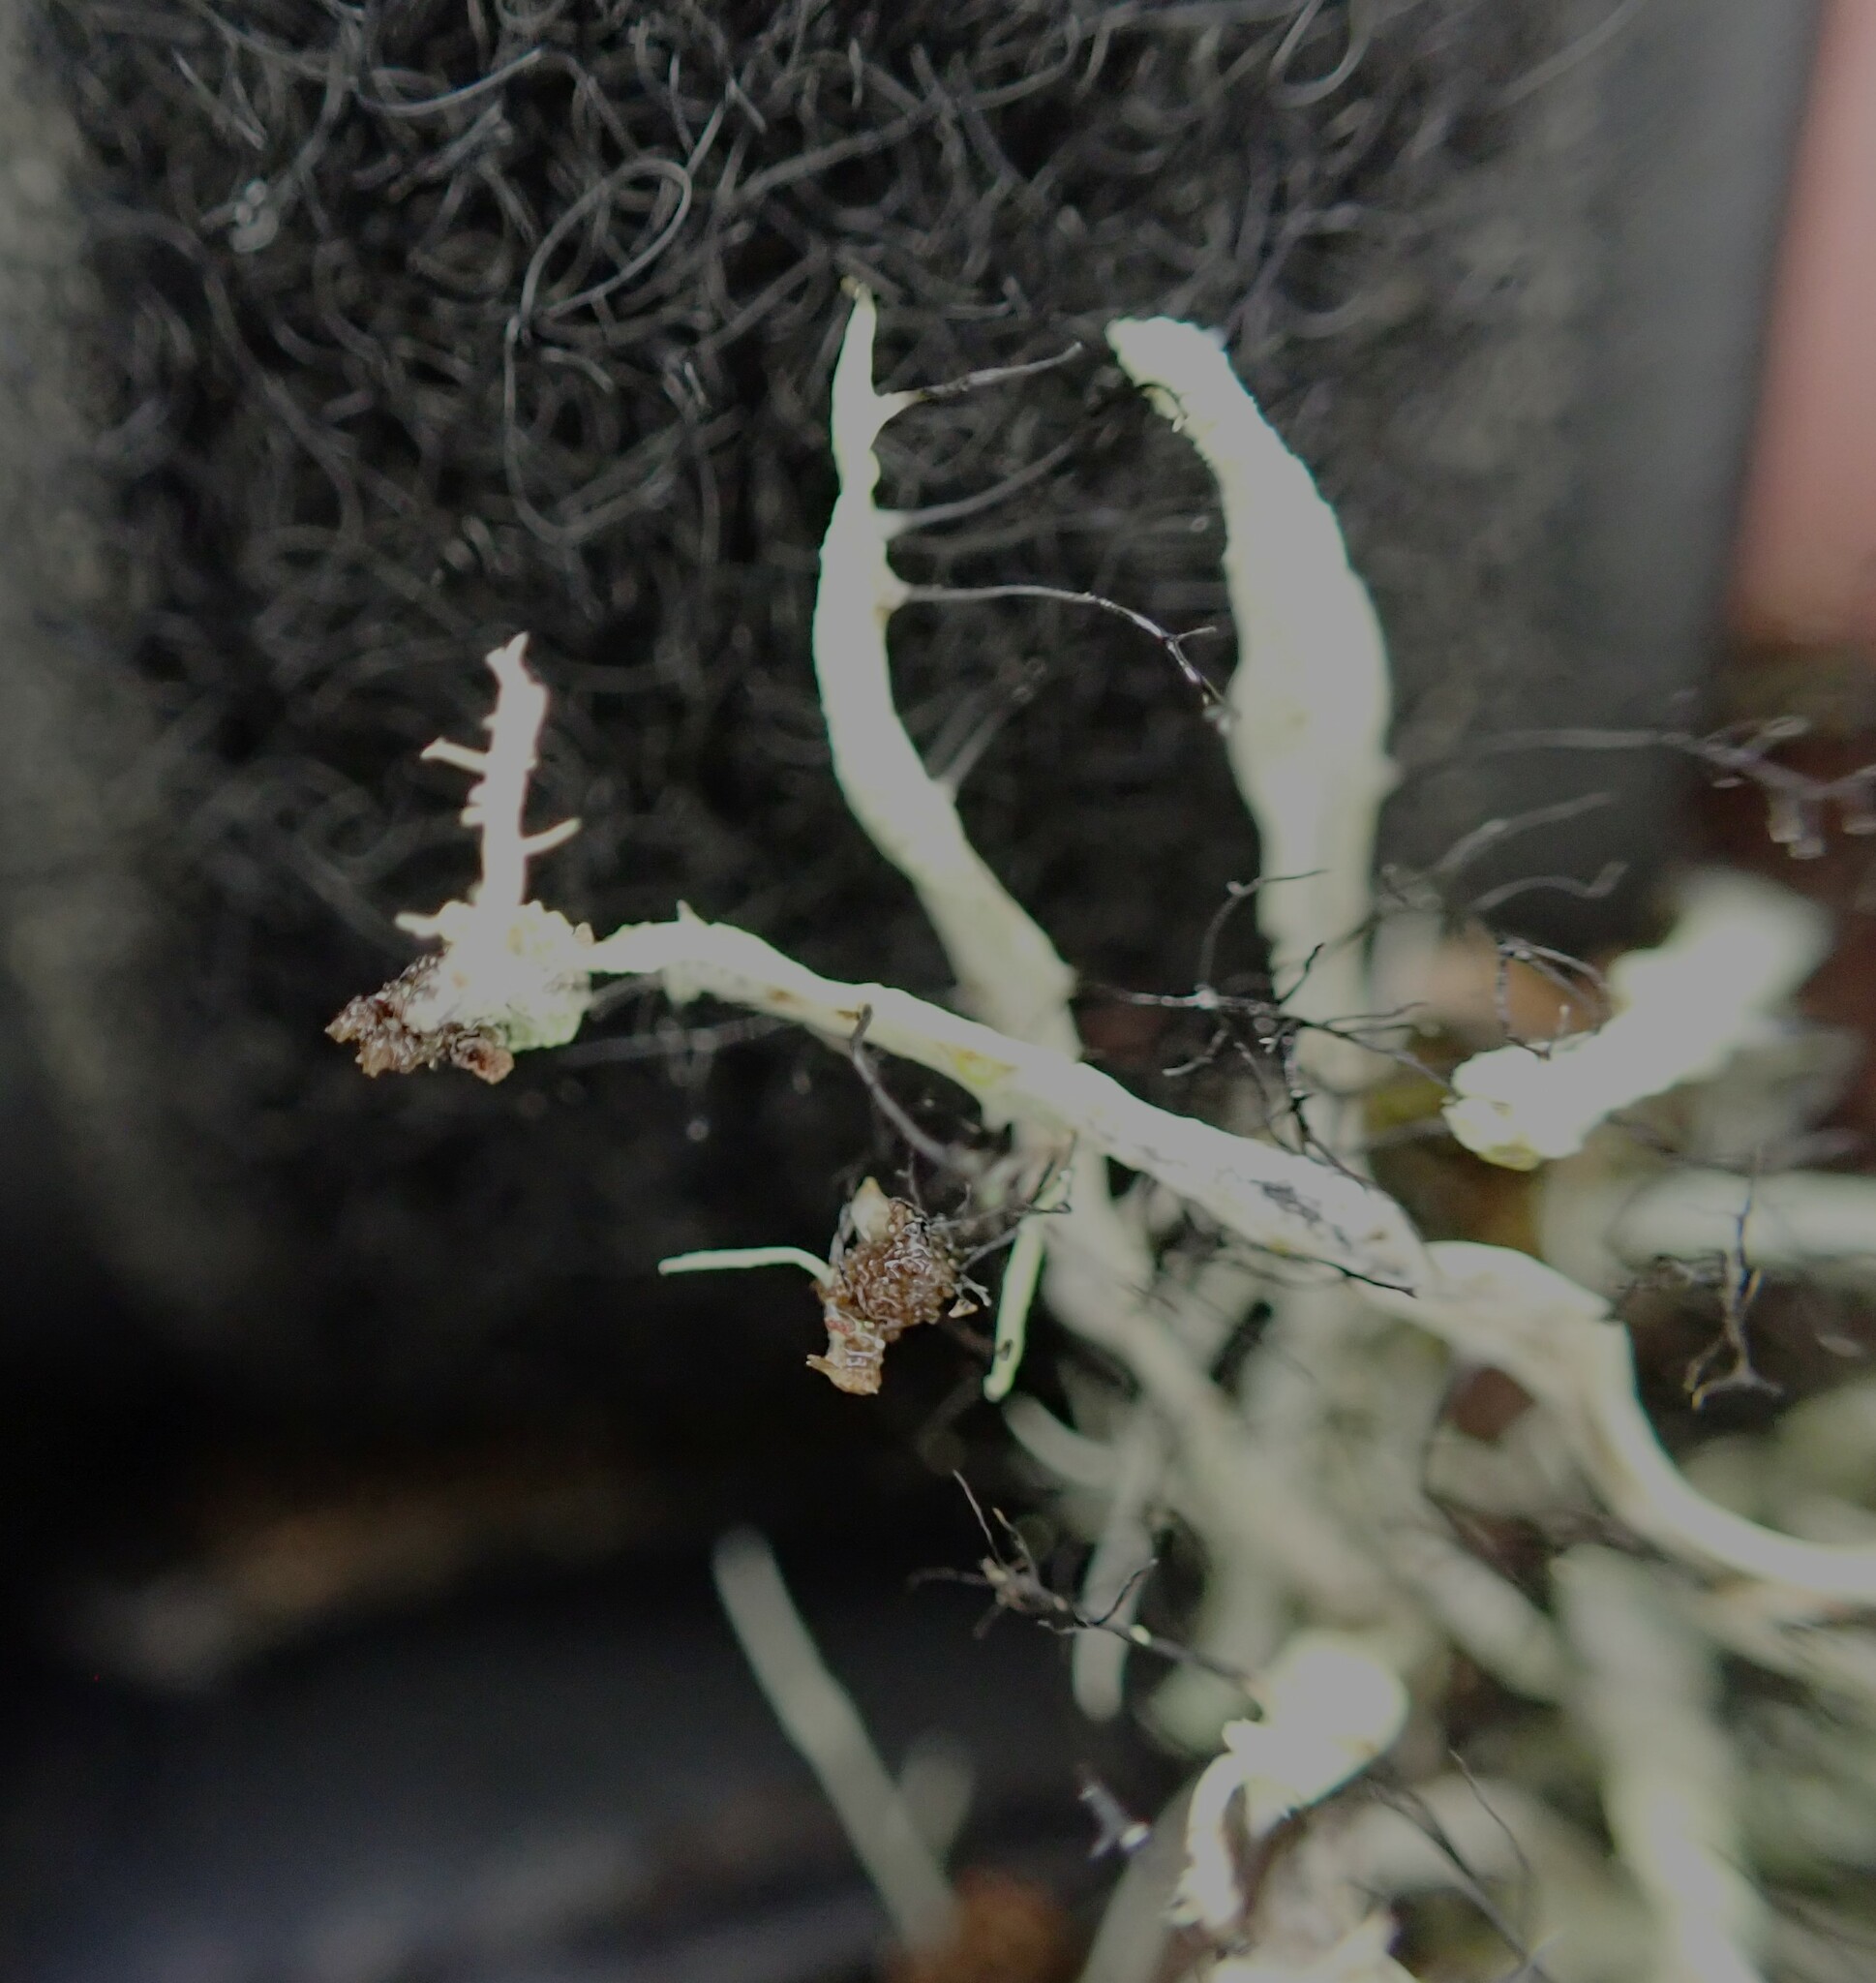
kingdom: Fungi
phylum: Ascomycota
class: Lecanoromycetes
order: Caliciales
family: Physciaceae
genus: Leucodermia
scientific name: Leucodermia leucomelos
